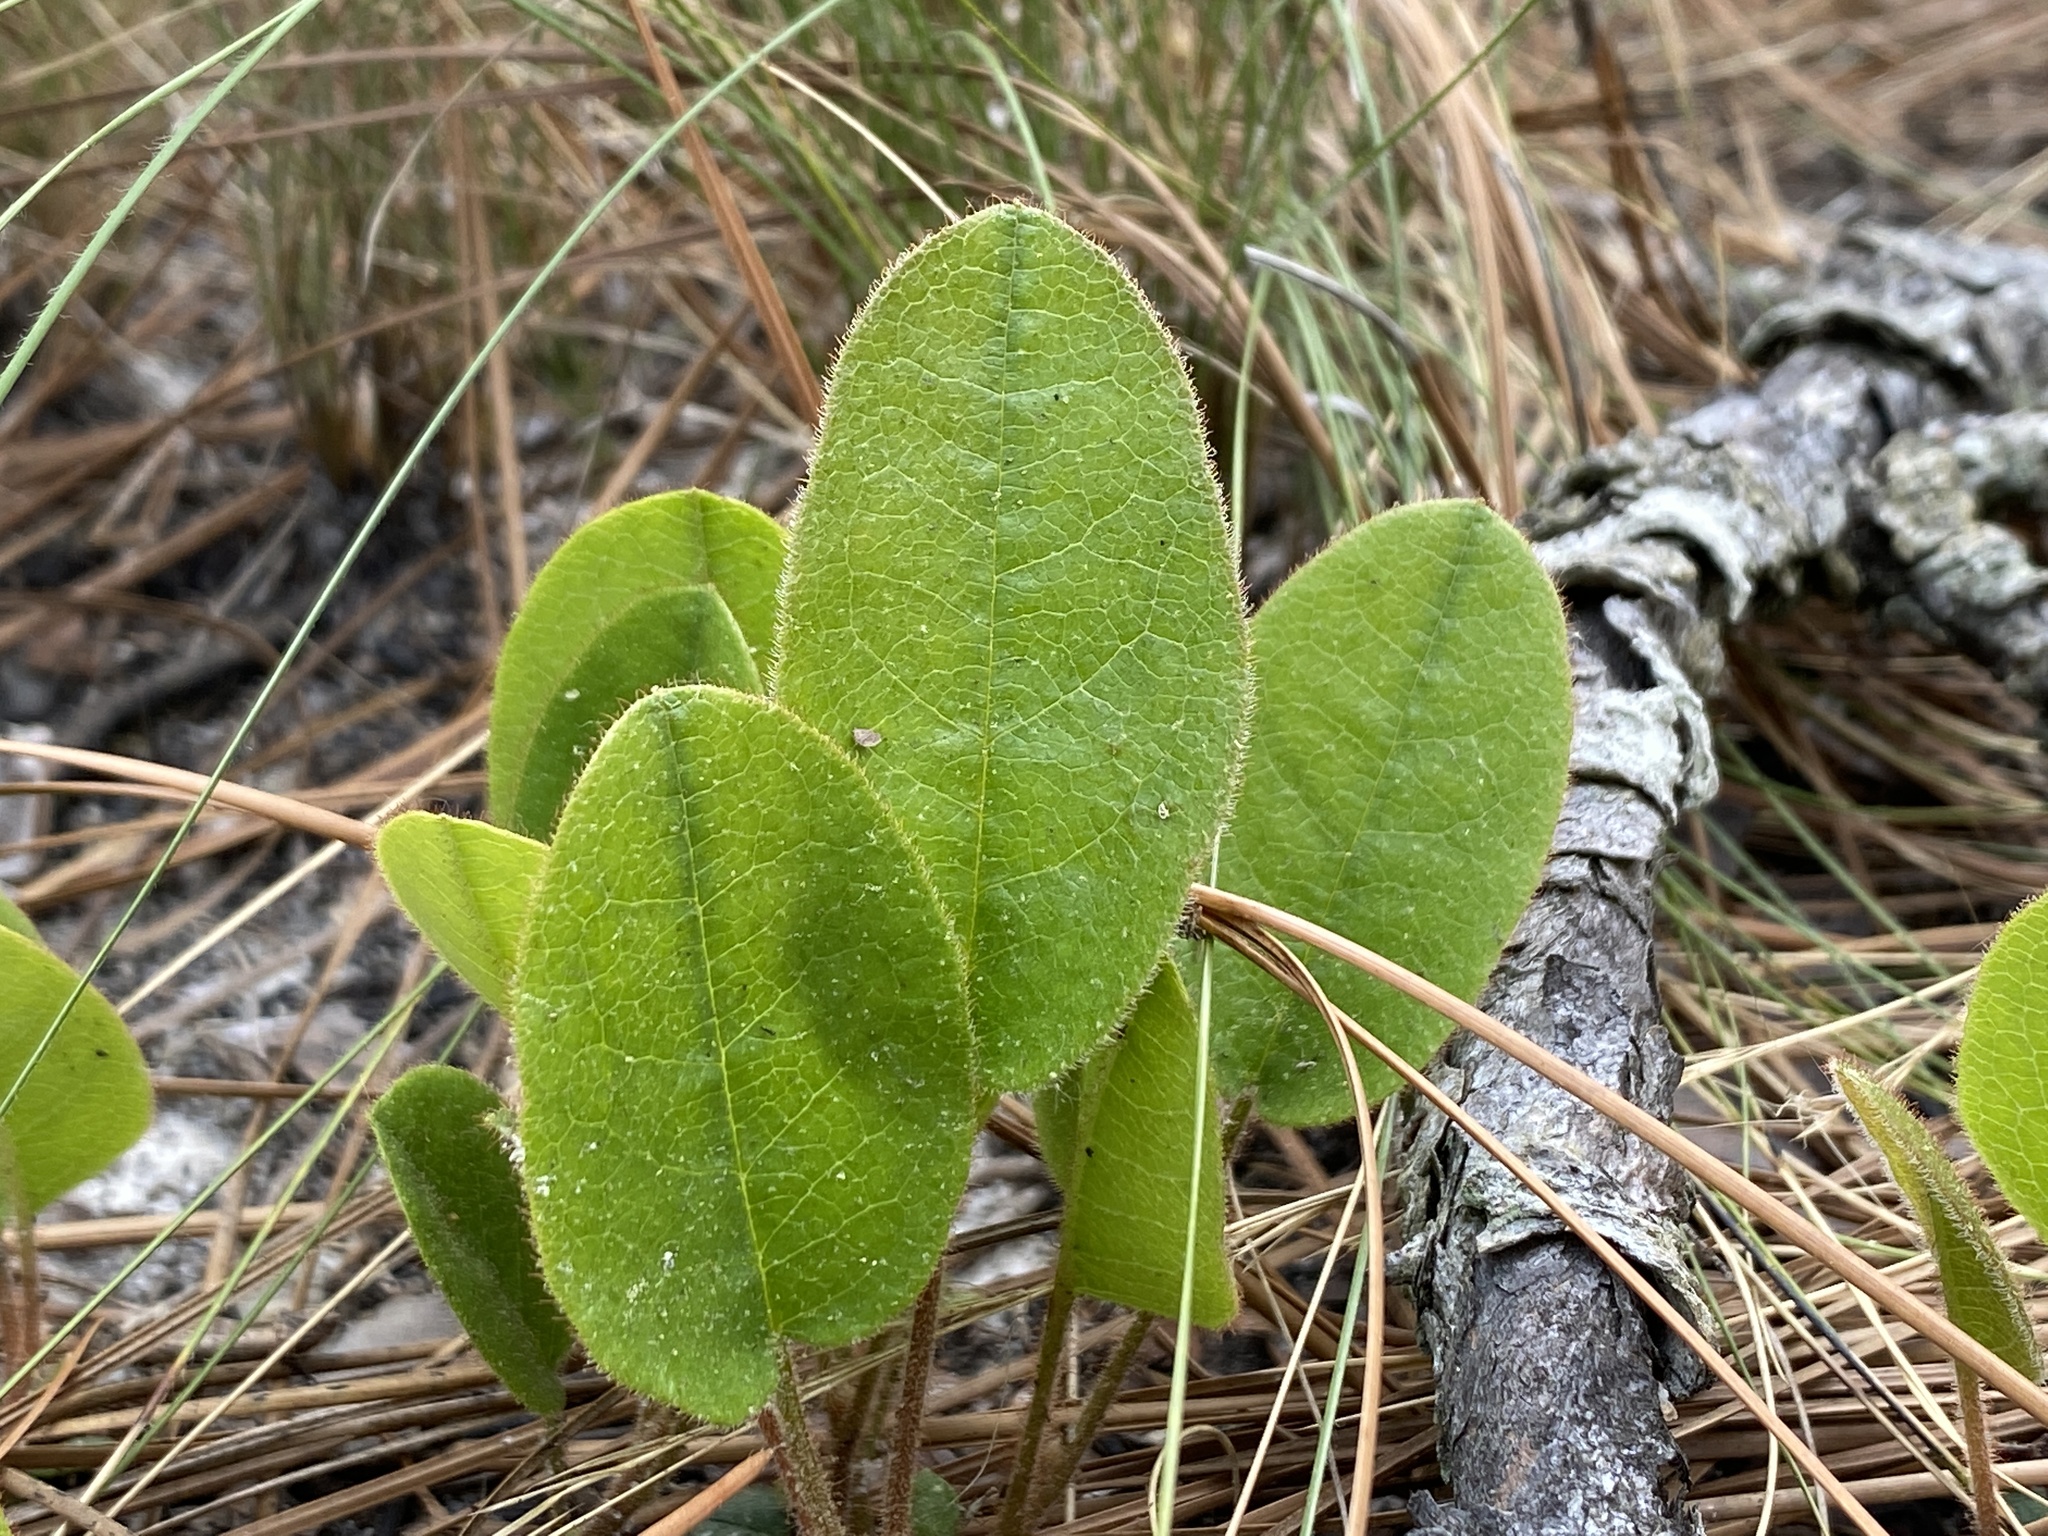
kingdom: Plantae
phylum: Tracheophyta
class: Magnoliopsida
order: Ericales
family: Ericaceae
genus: Epigaea
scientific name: Epigaea repens
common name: Gravelroot
